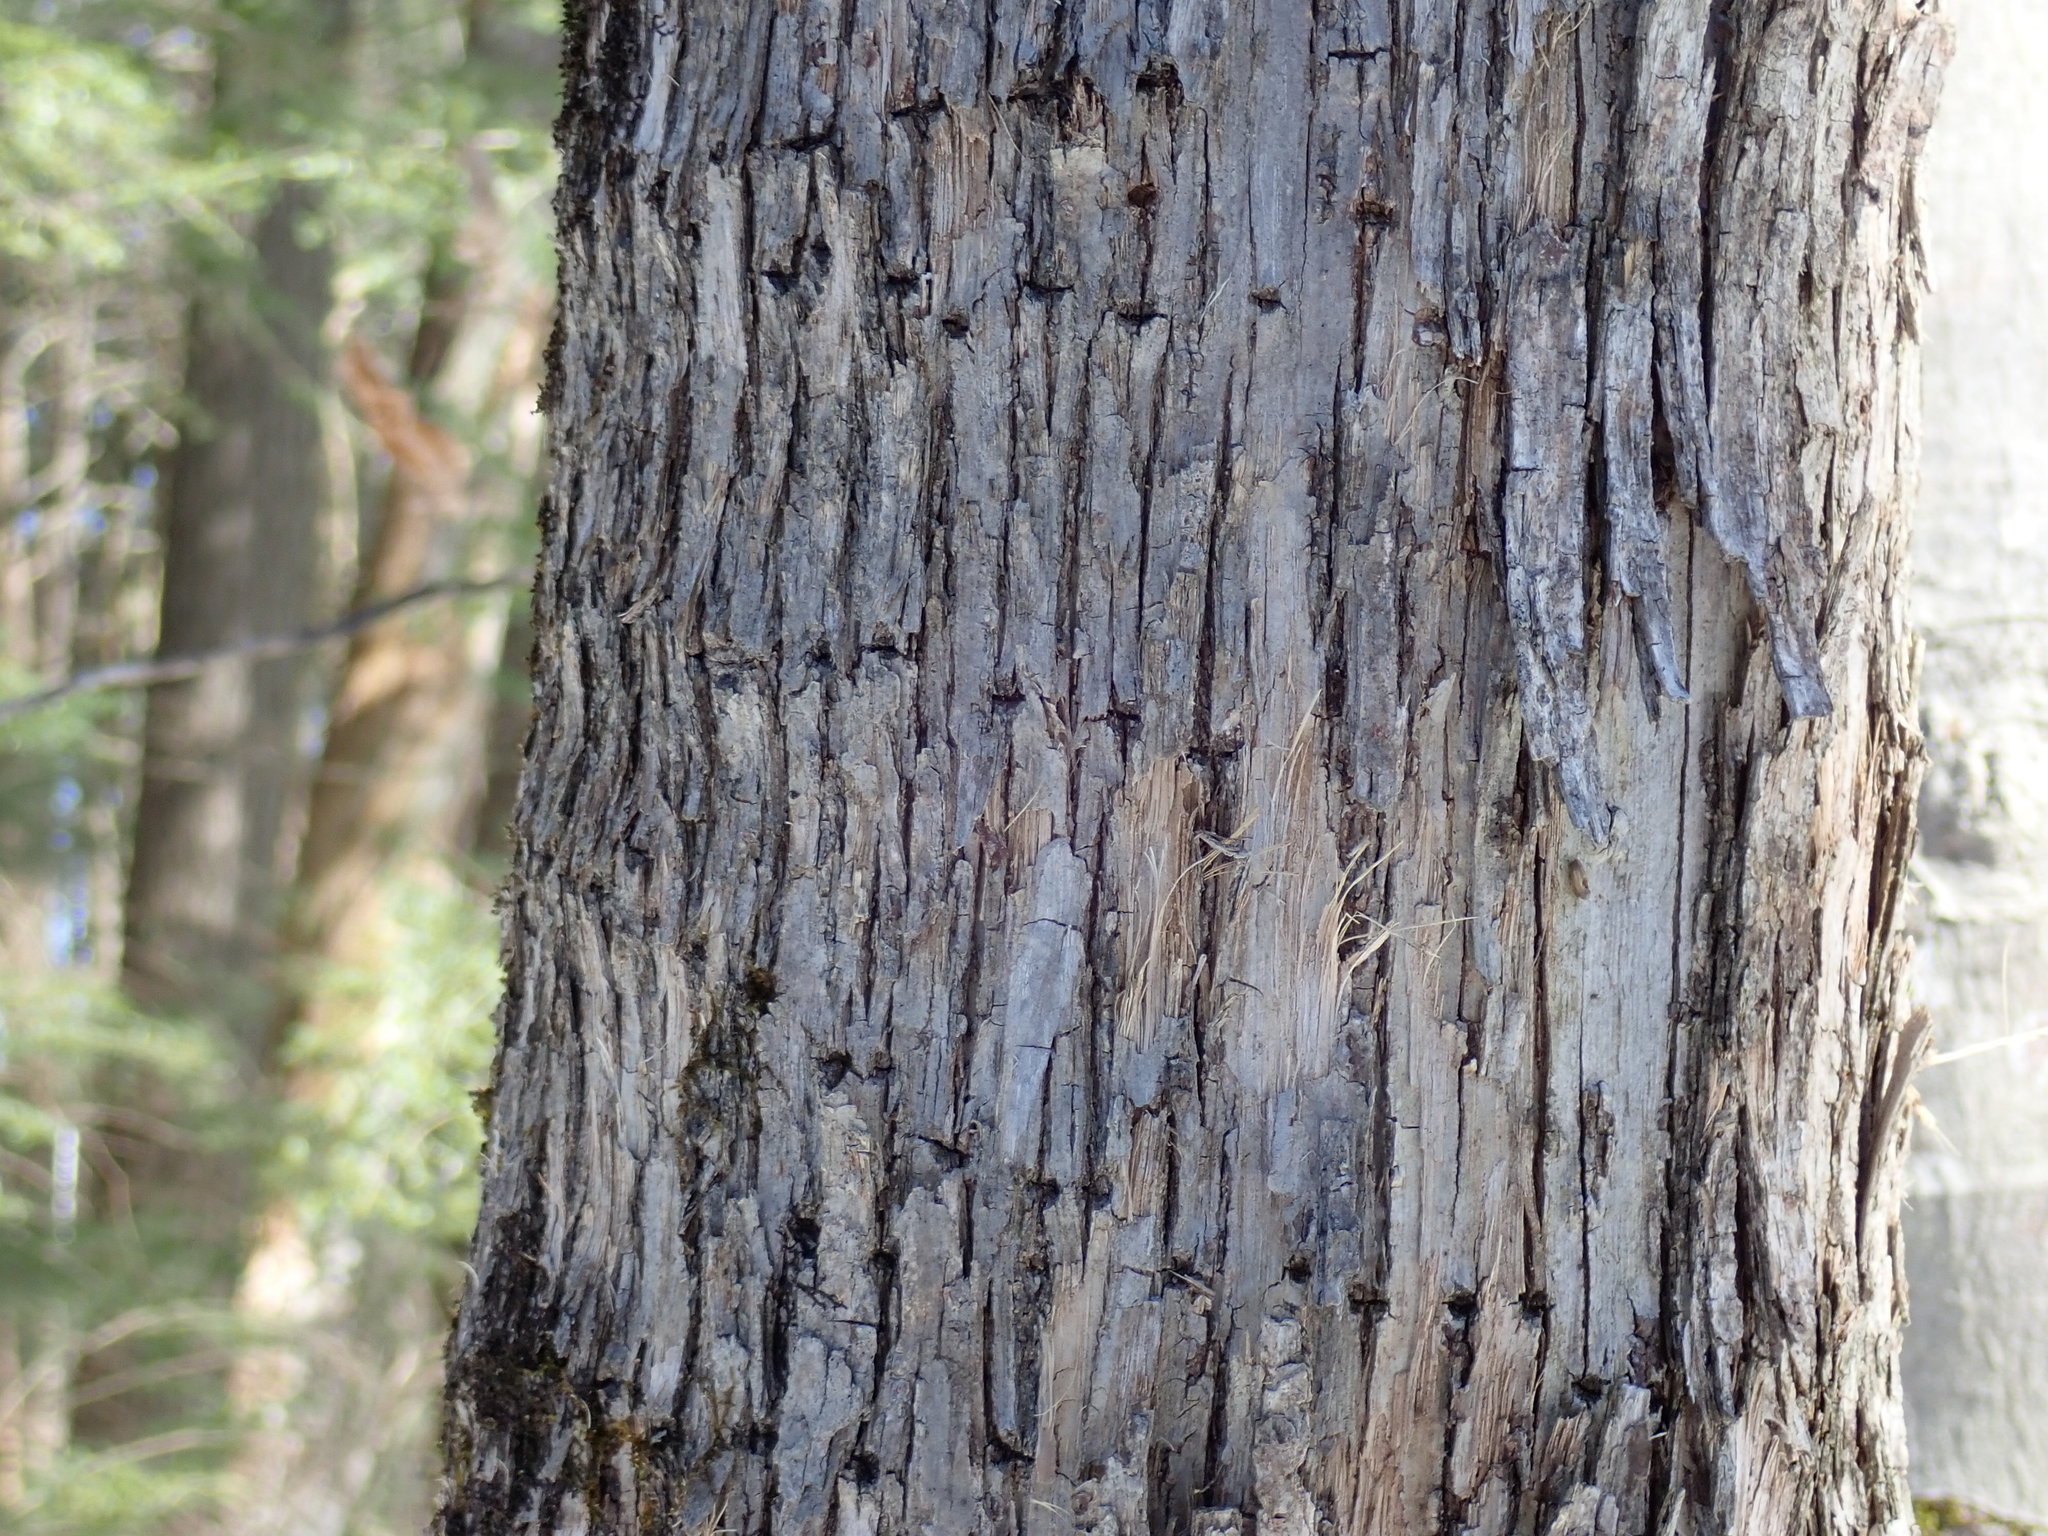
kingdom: Animalia
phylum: Chordata
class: Aves
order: Piciformes
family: Picidae
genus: Sphyrapicus
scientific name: Sphyrapicus varius
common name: Yellow-bellied sapsucker
